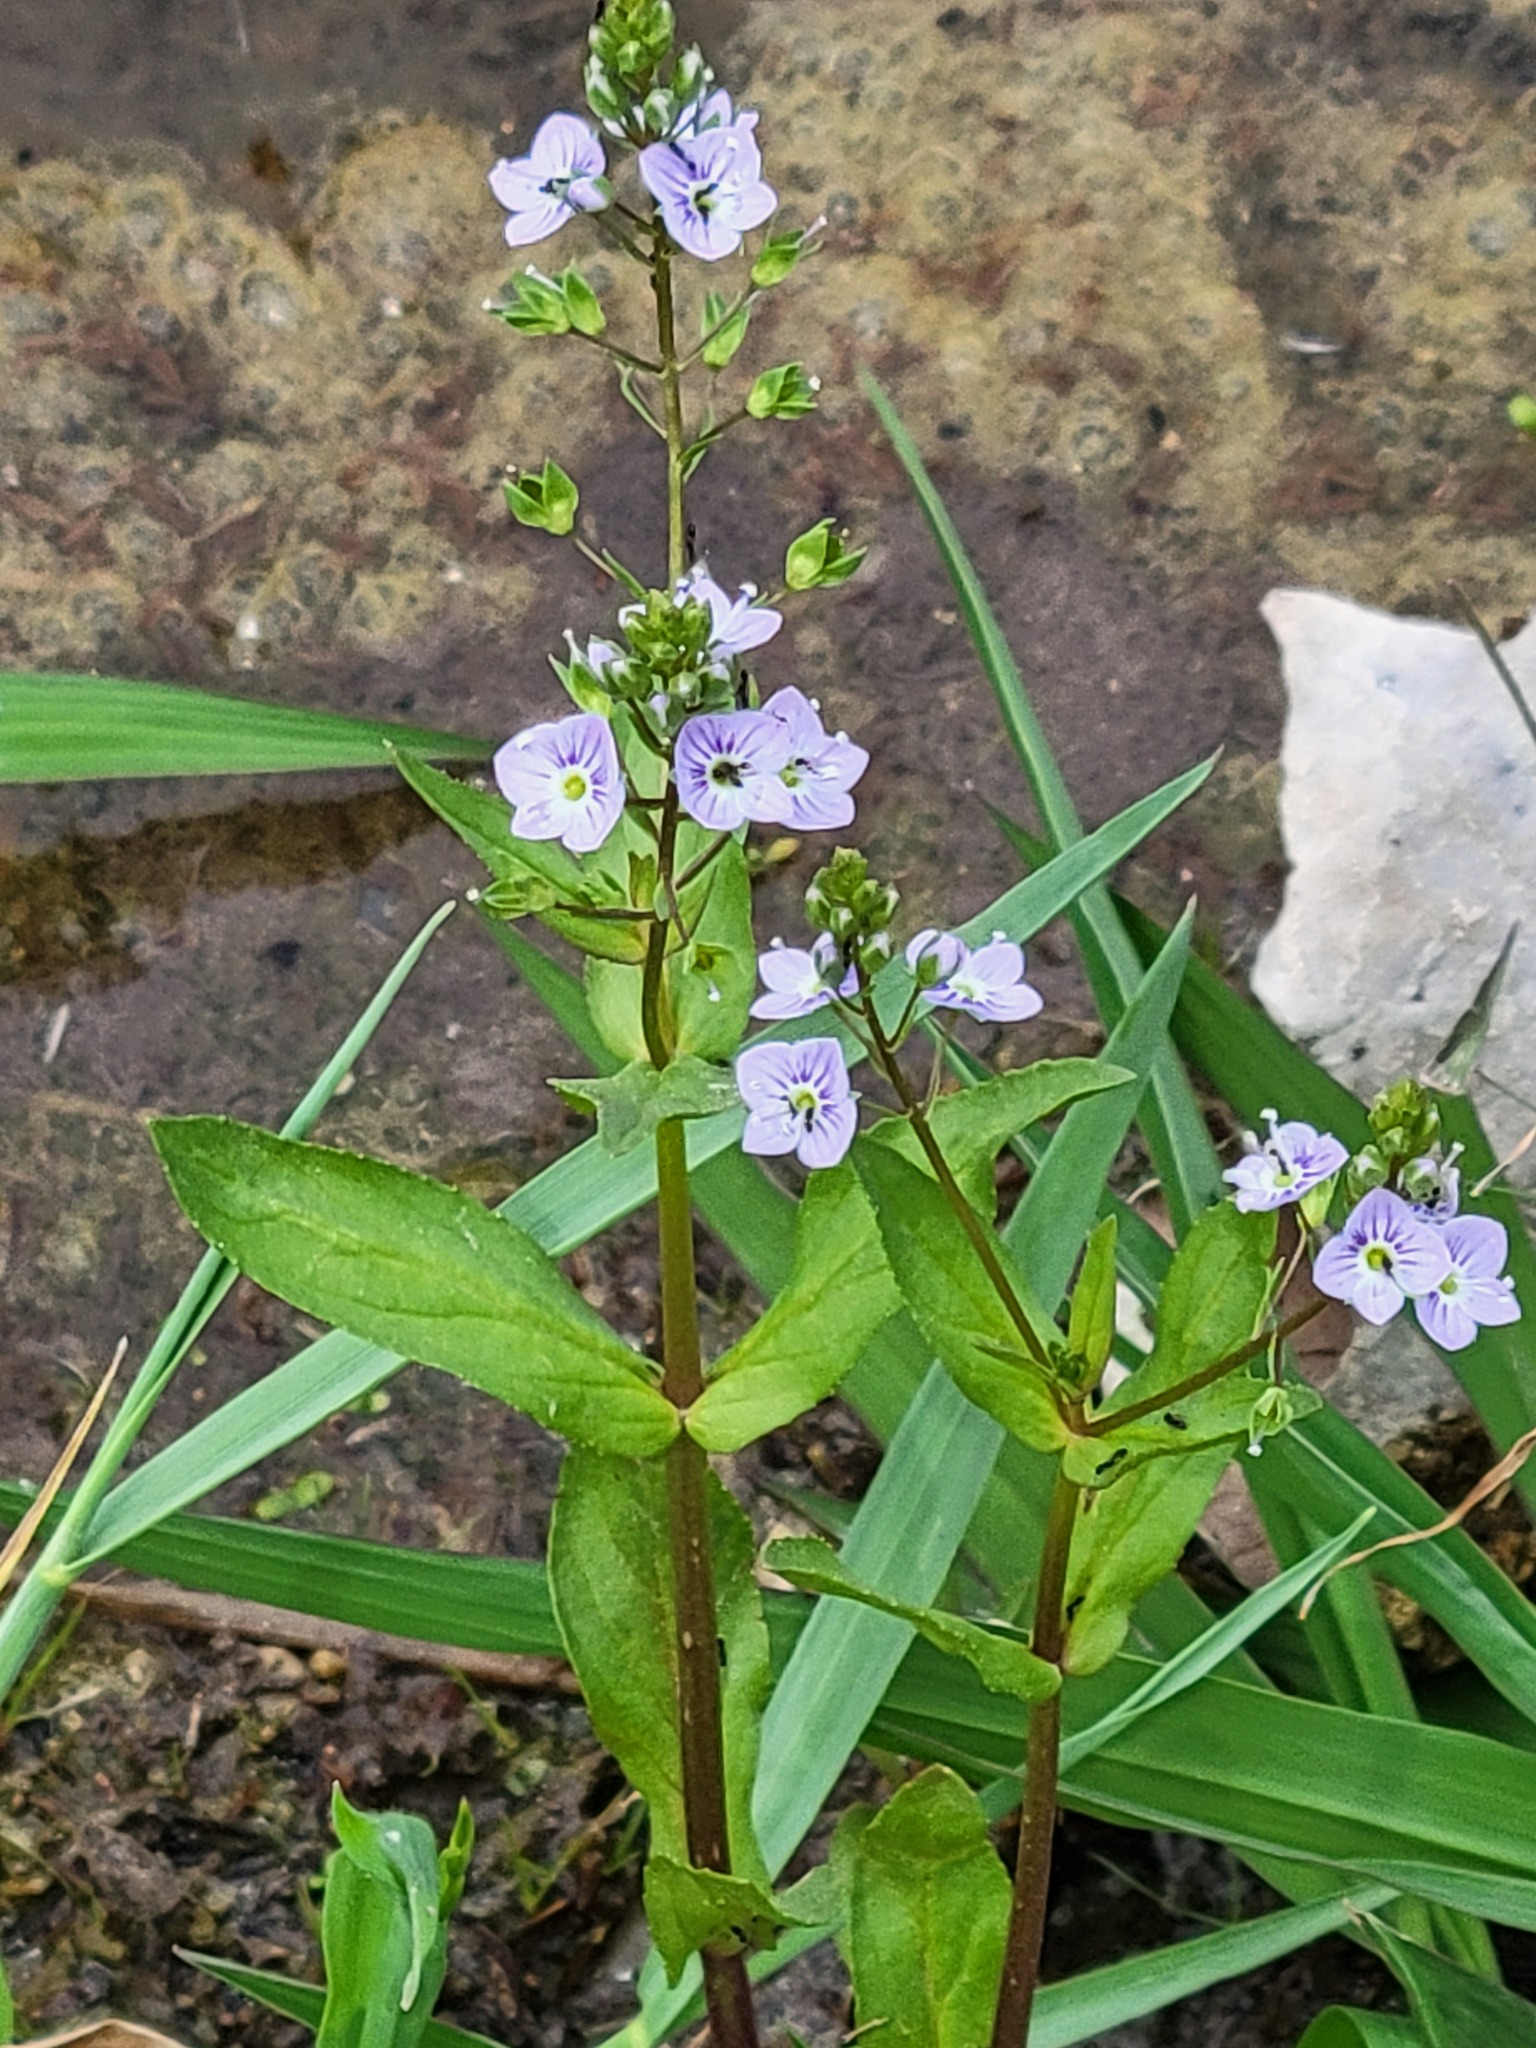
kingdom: Plantae
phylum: Tracheophyta
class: Magnoliopsida
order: Lamiales
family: Plantaginaceae
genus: Veronica
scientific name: Veronica anagallis-aquatica
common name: Water speedwell
